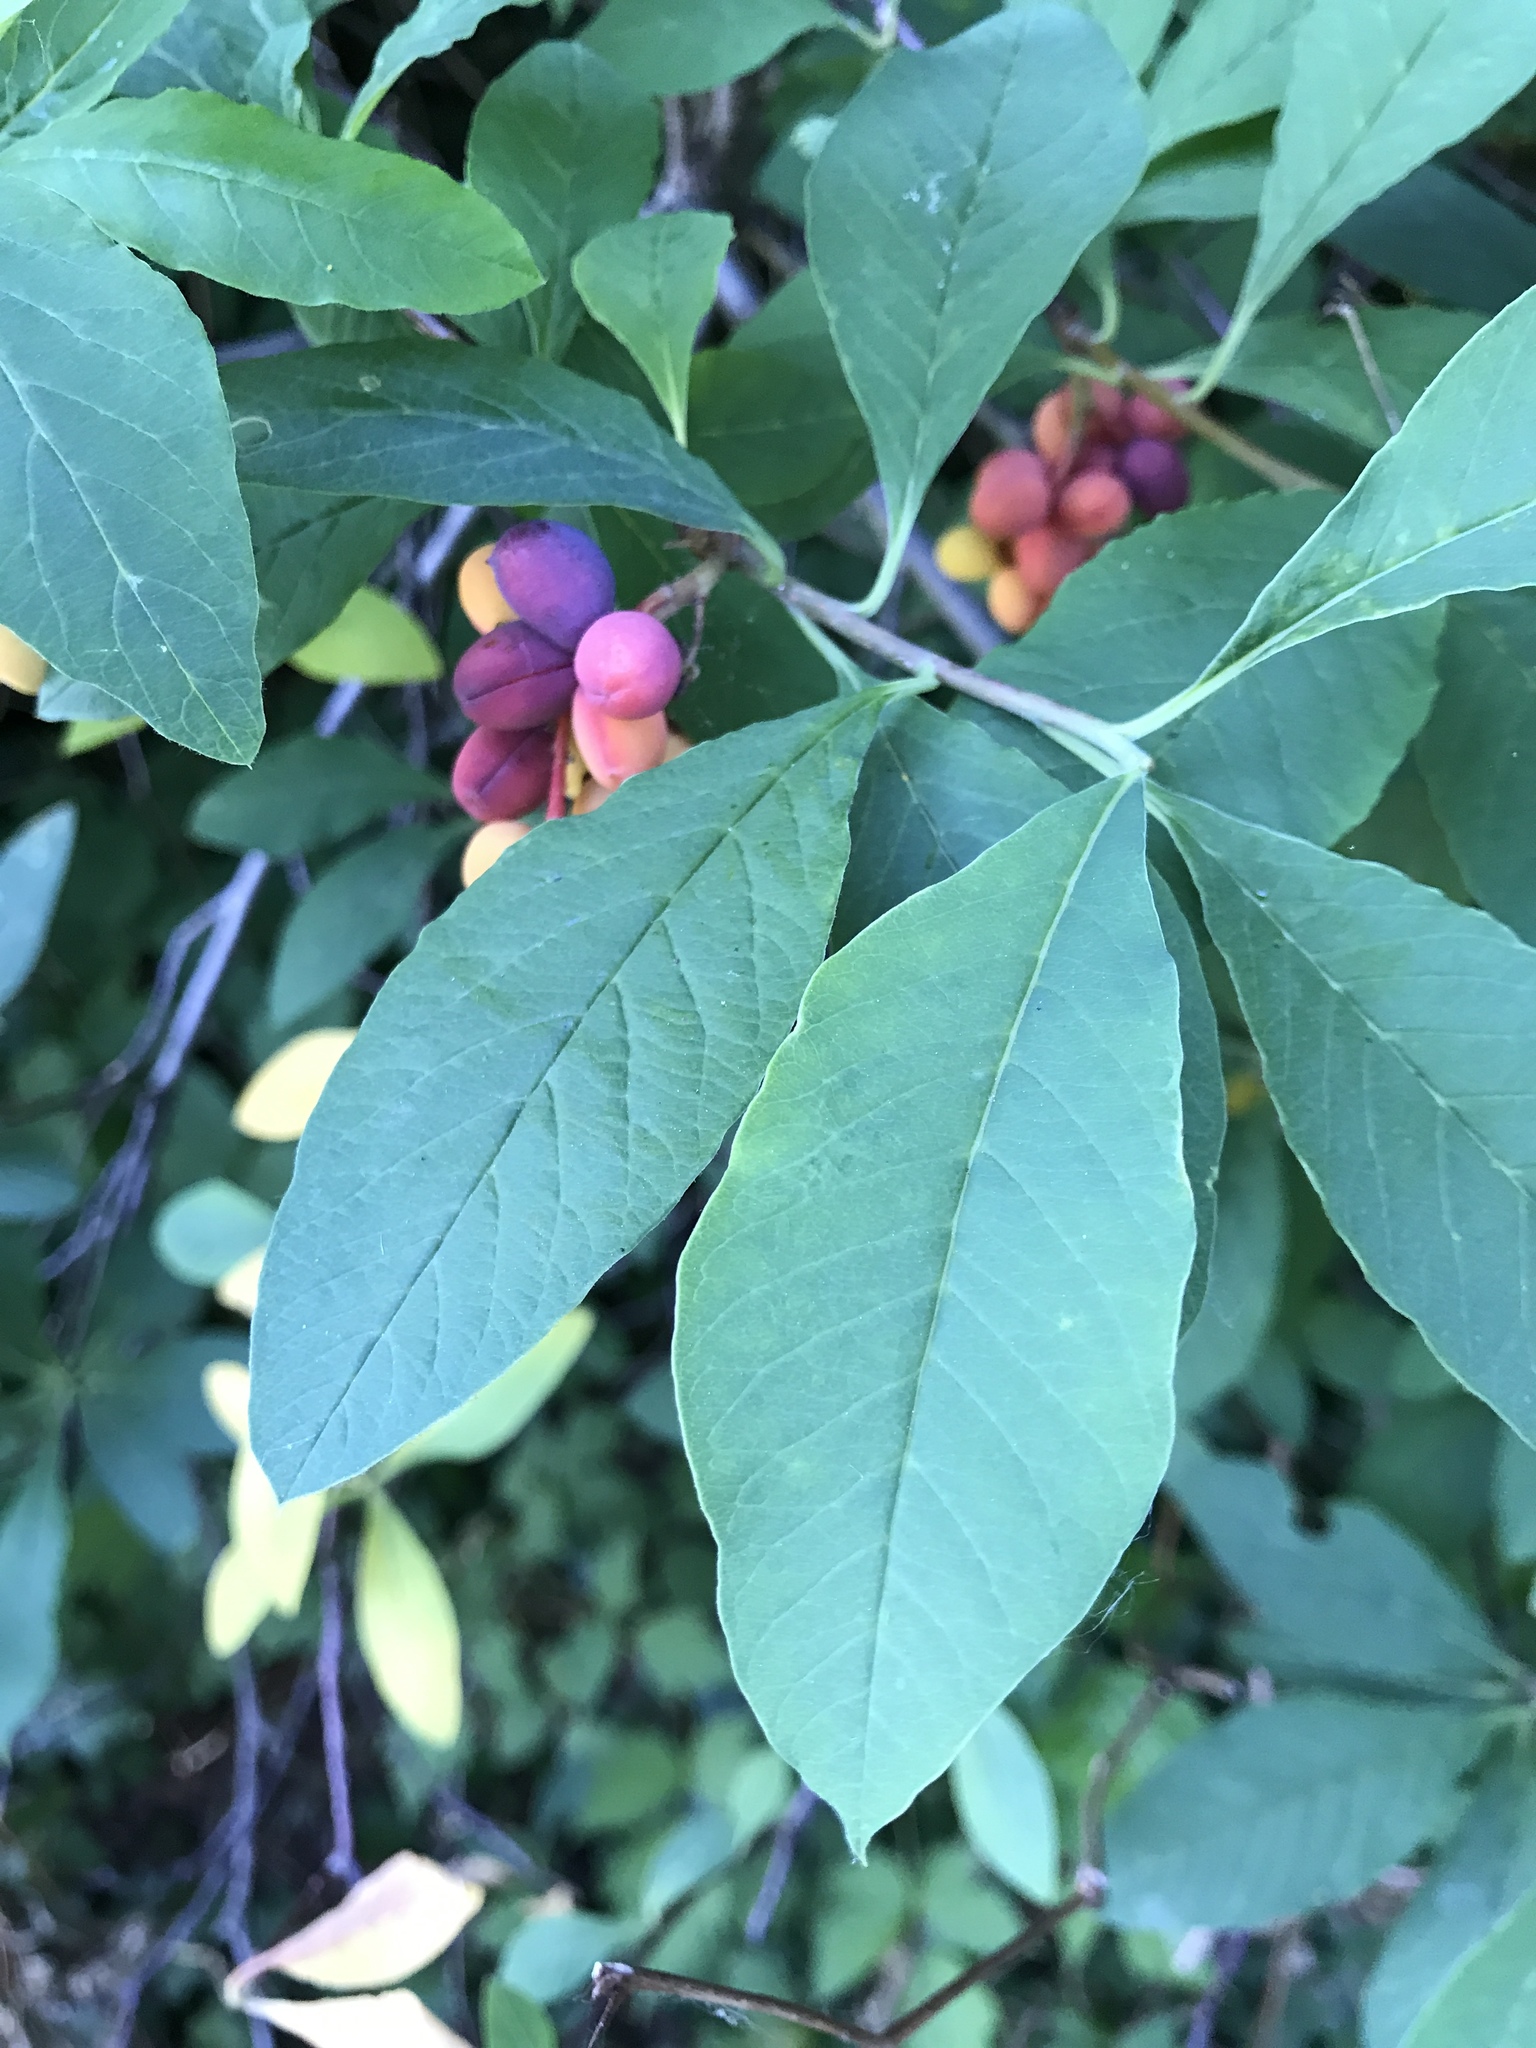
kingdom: Plantae
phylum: Tracheophyta
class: Magnoliopsida
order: Rosales
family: Rosaceae
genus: Oemleria
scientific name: Oemleria cerasiformis
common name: Osoberry
